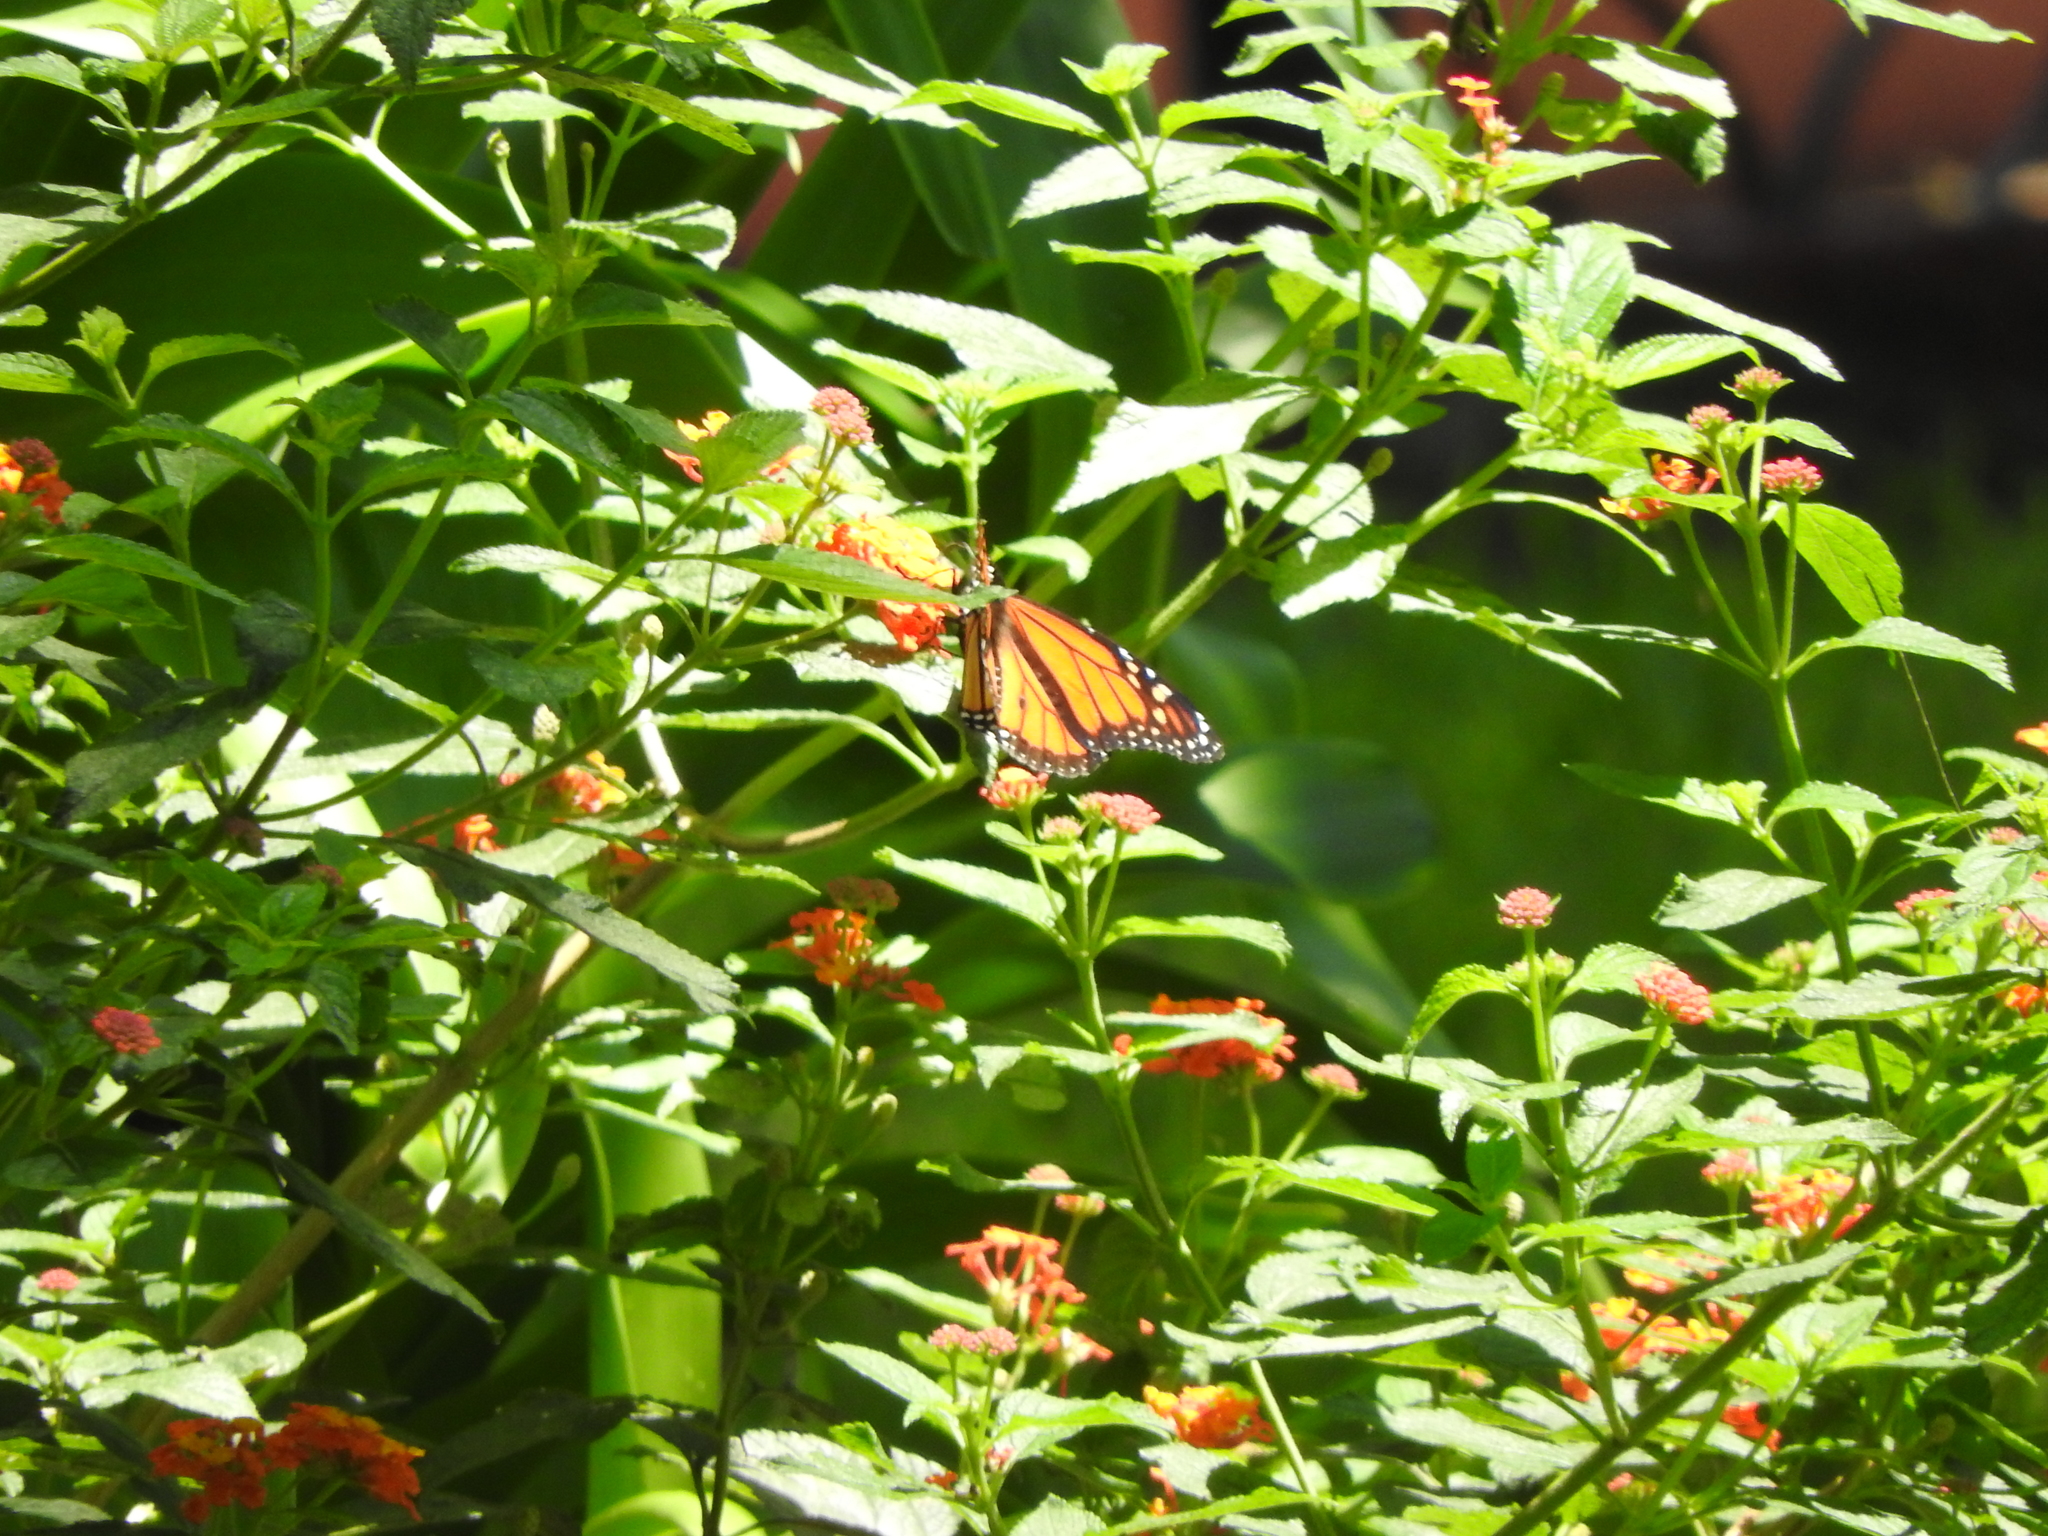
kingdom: Animalia
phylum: Arthropoda
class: Insecta
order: Lepidoptera
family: Nymphalidae
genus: Danaus
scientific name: Danaus plexippus
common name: Monarch
